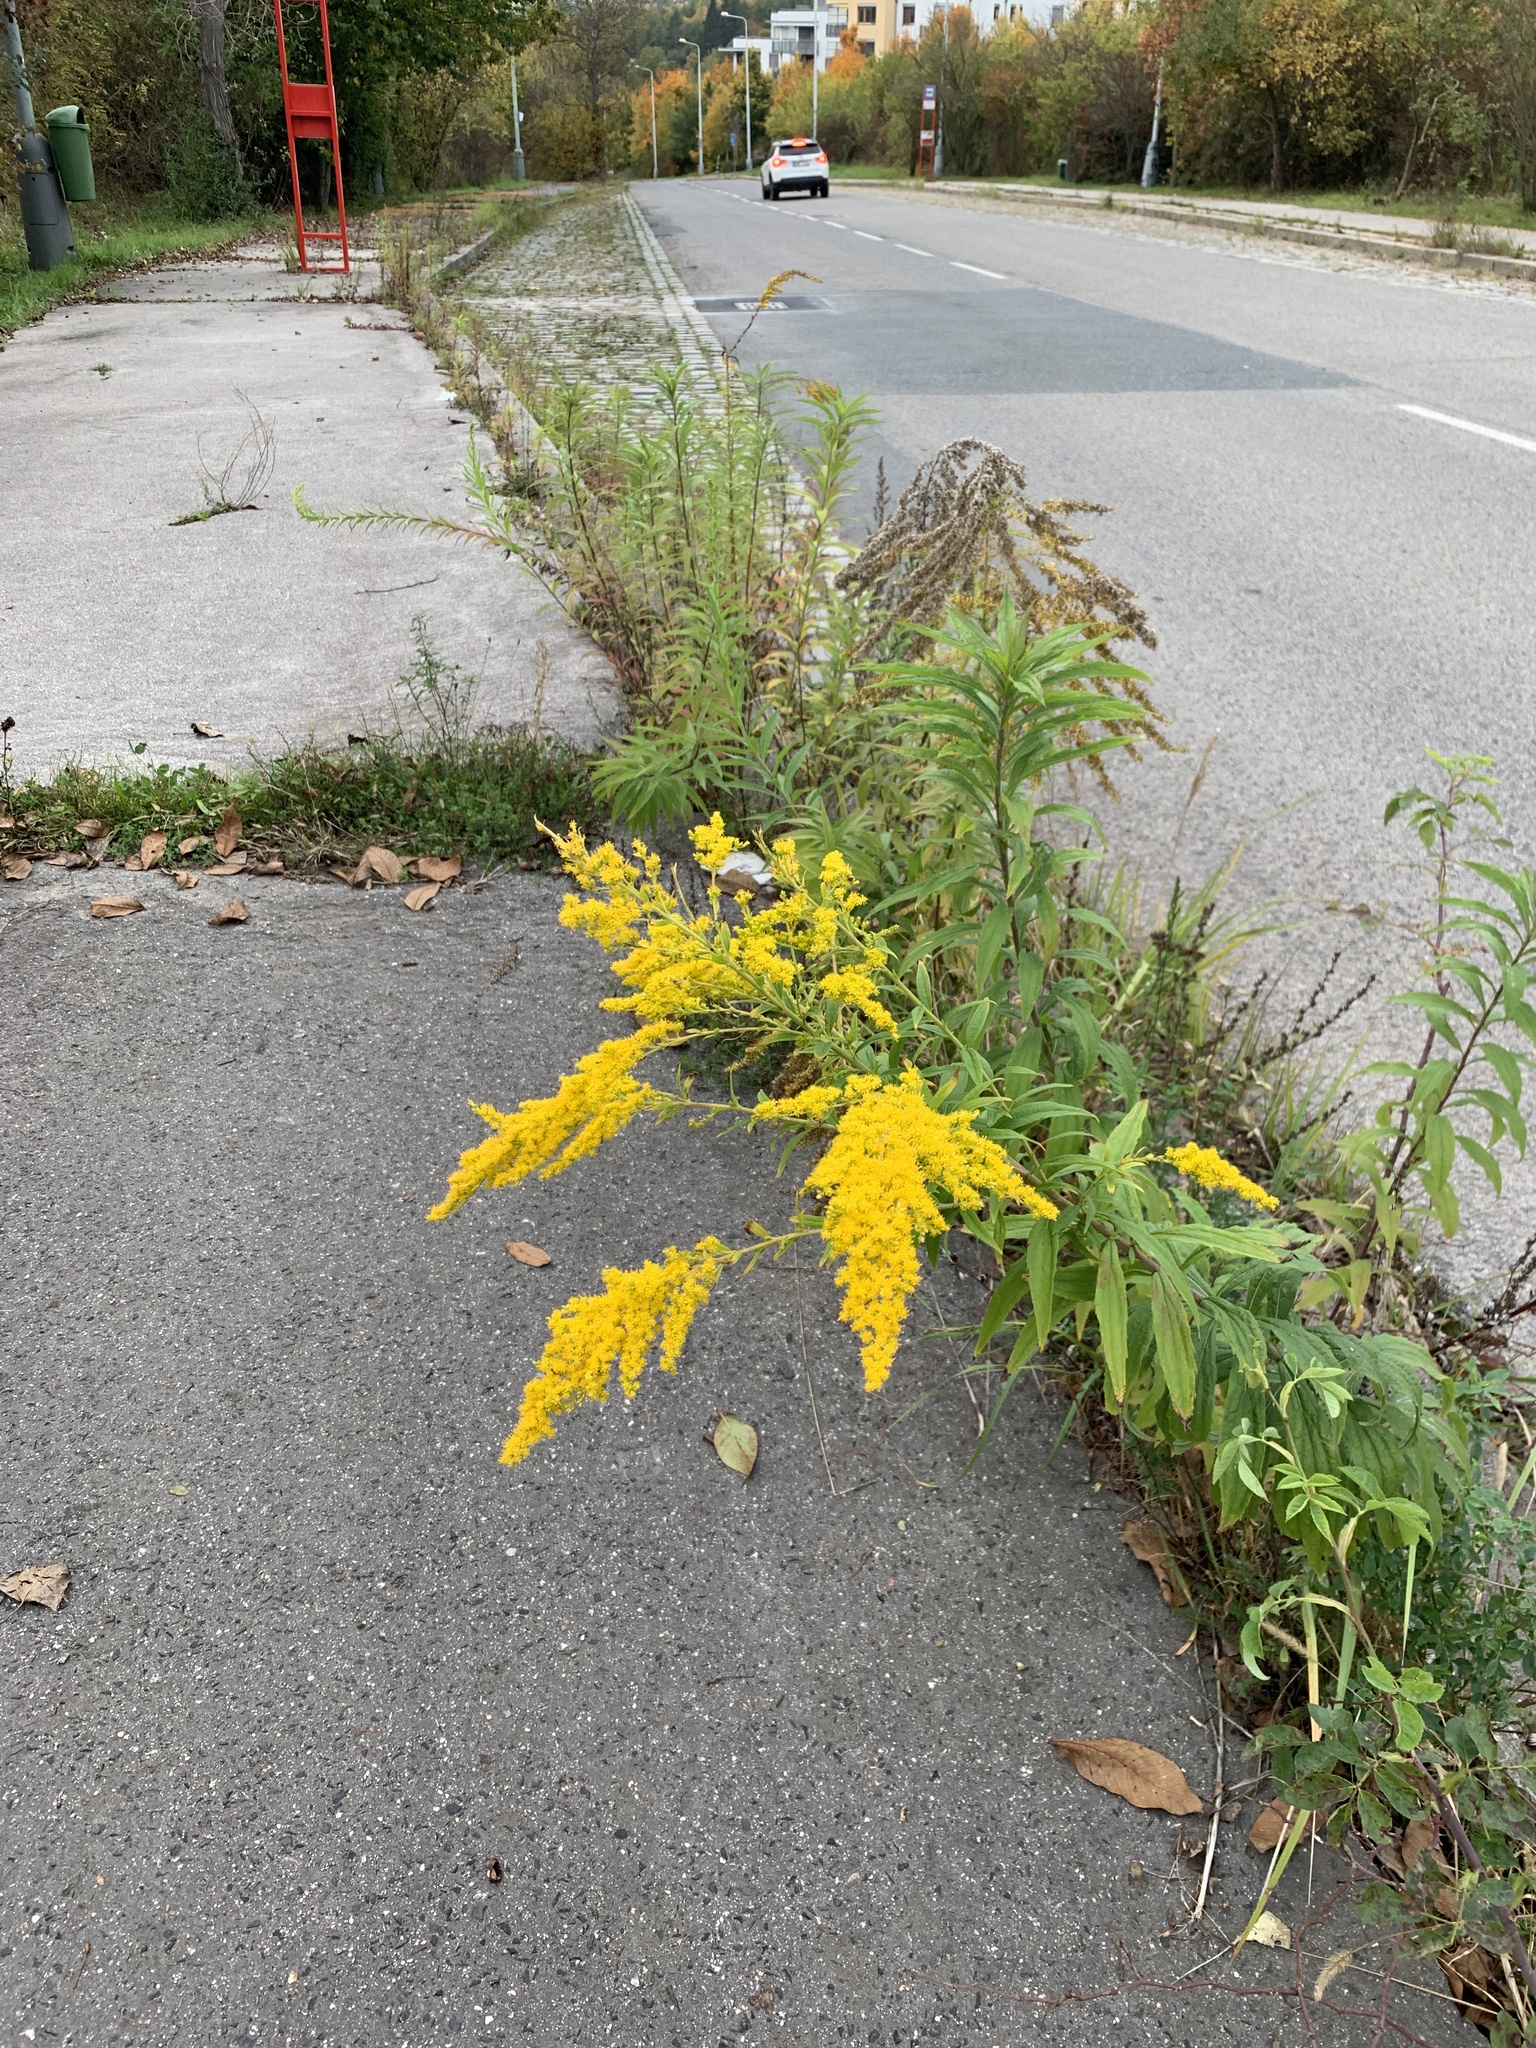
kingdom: Plantae
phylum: Tracheophyta
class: Magnoliopsida
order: Asterales
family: Asteraceae
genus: Solidago
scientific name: Solidago canadensis
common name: Canada goldenrod
